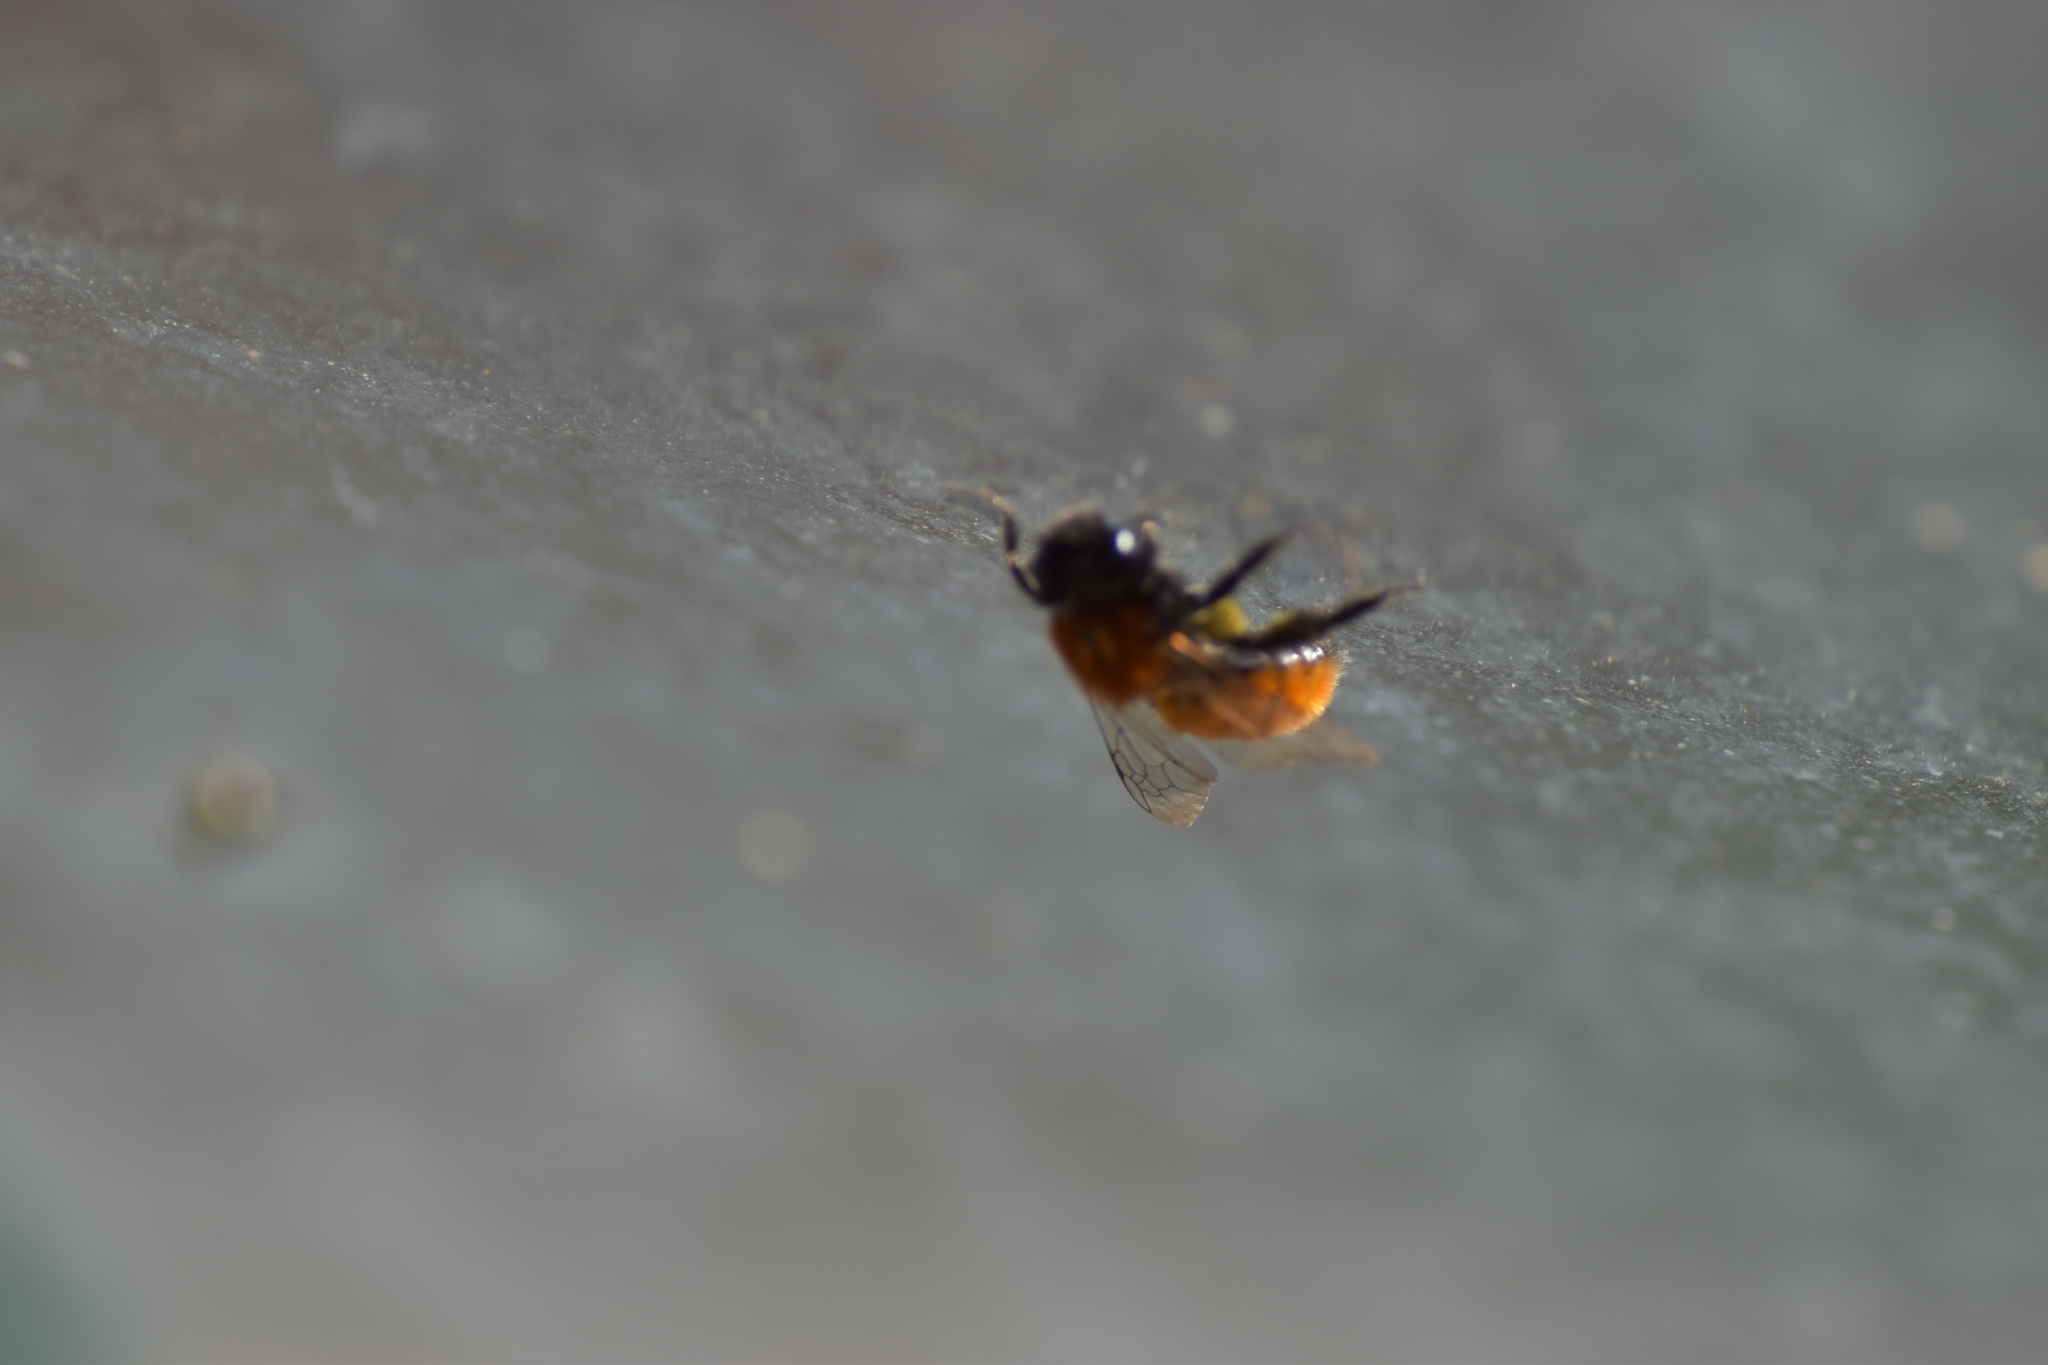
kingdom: Animalia
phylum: Arthropoda
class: Insecta
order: Hymenoptera
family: Andrenidae
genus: Andrena
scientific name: Andrena fulva
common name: Tawny mining bee
